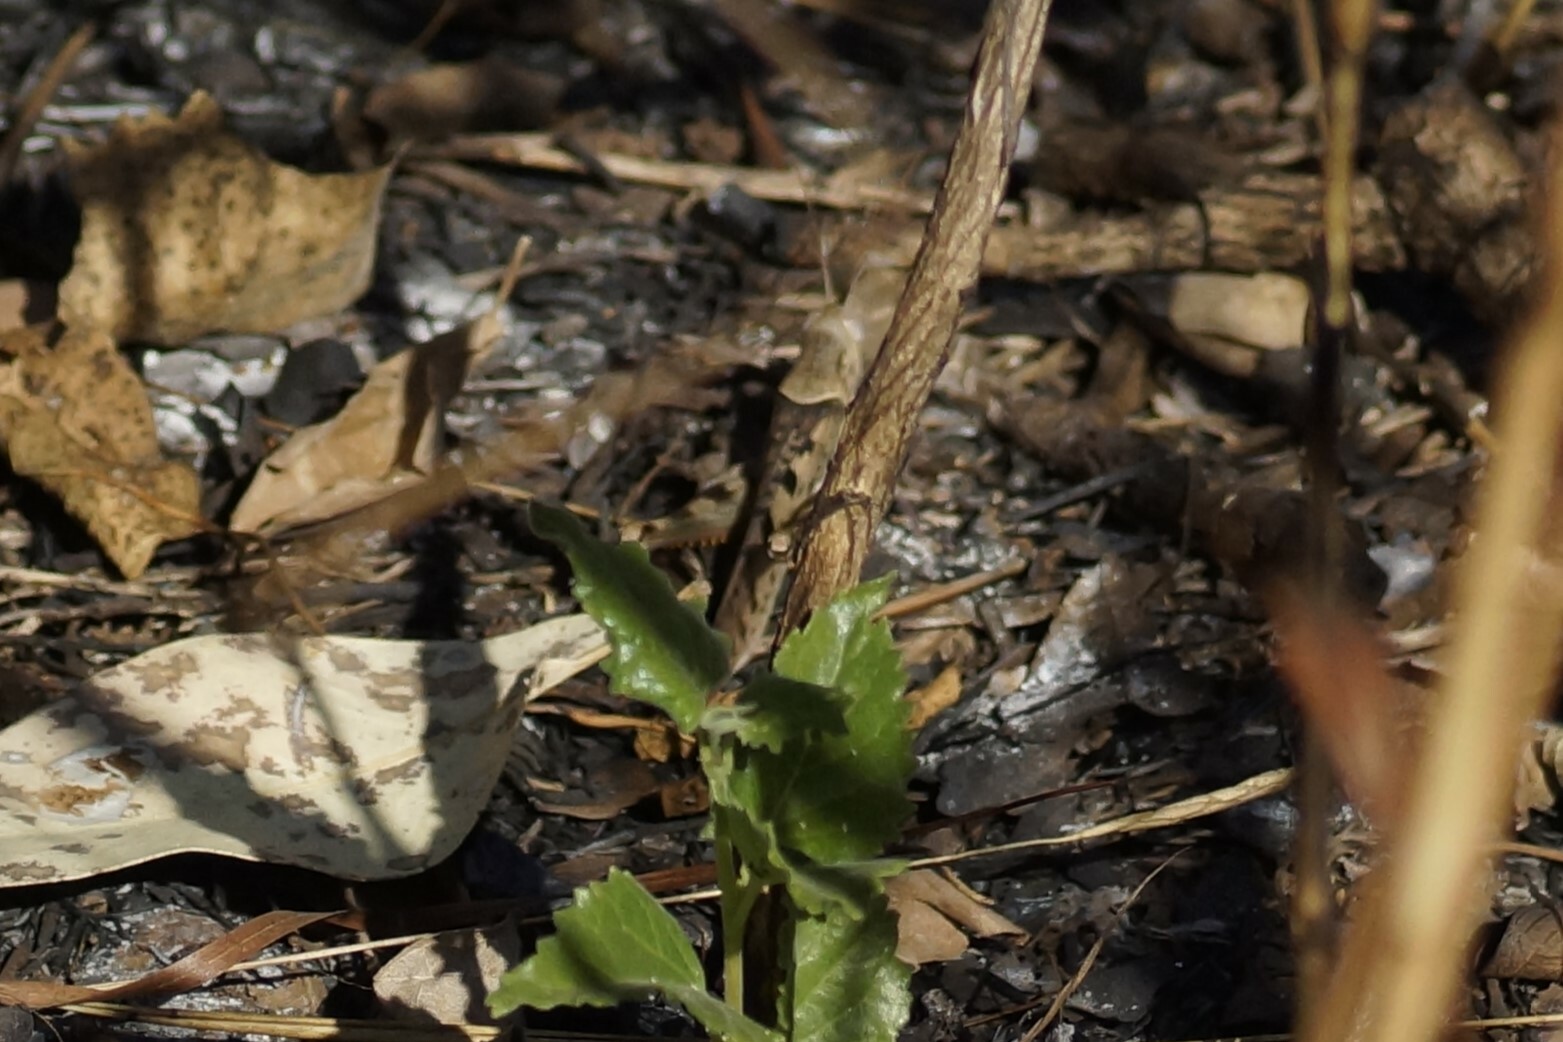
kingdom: Animalia
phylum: Arthropoda
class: Insecta
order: Orthoptera
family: Acrididae
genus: Austracris
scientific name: Austracris basalis
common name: Spotted spur-throated locust
